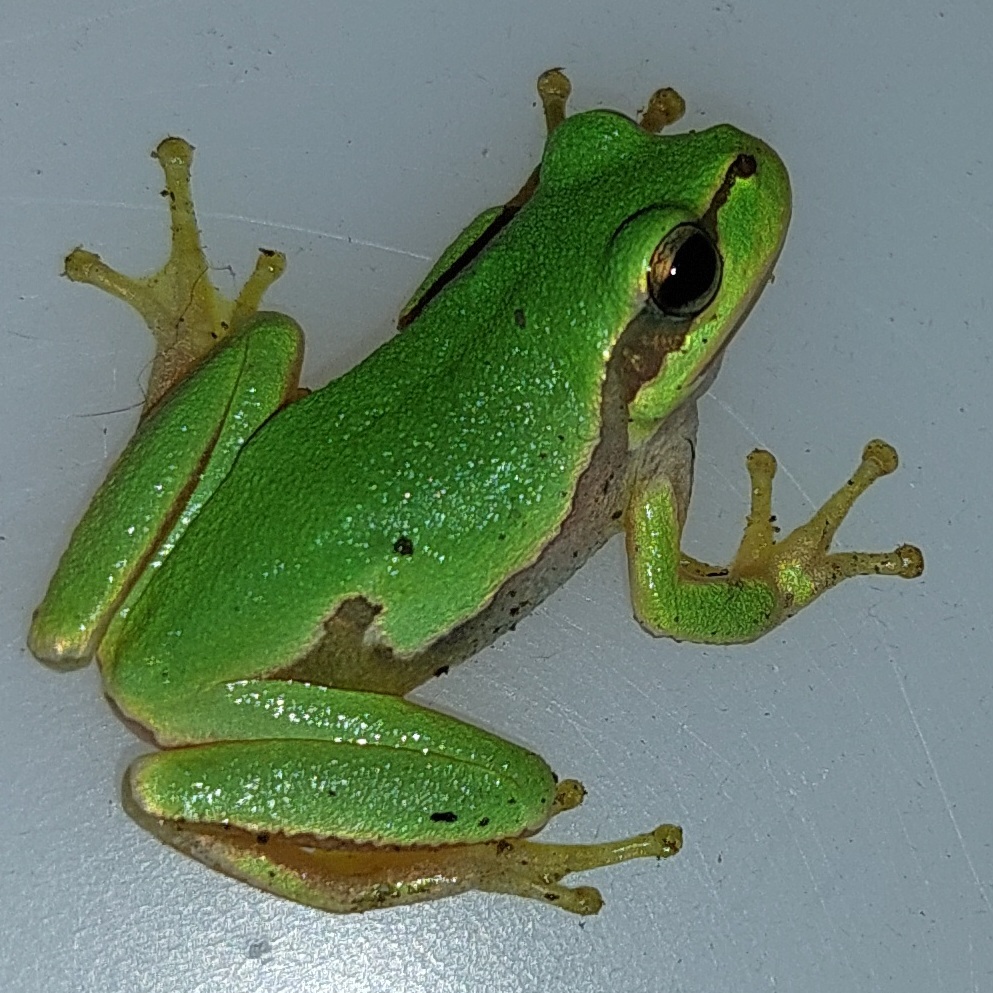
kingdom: Animalia
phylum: Chordata
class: Amphibia
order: Anura
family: Hylidae
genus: Hyla
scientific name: Hyla orientalis
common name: Caucasian treefrog
